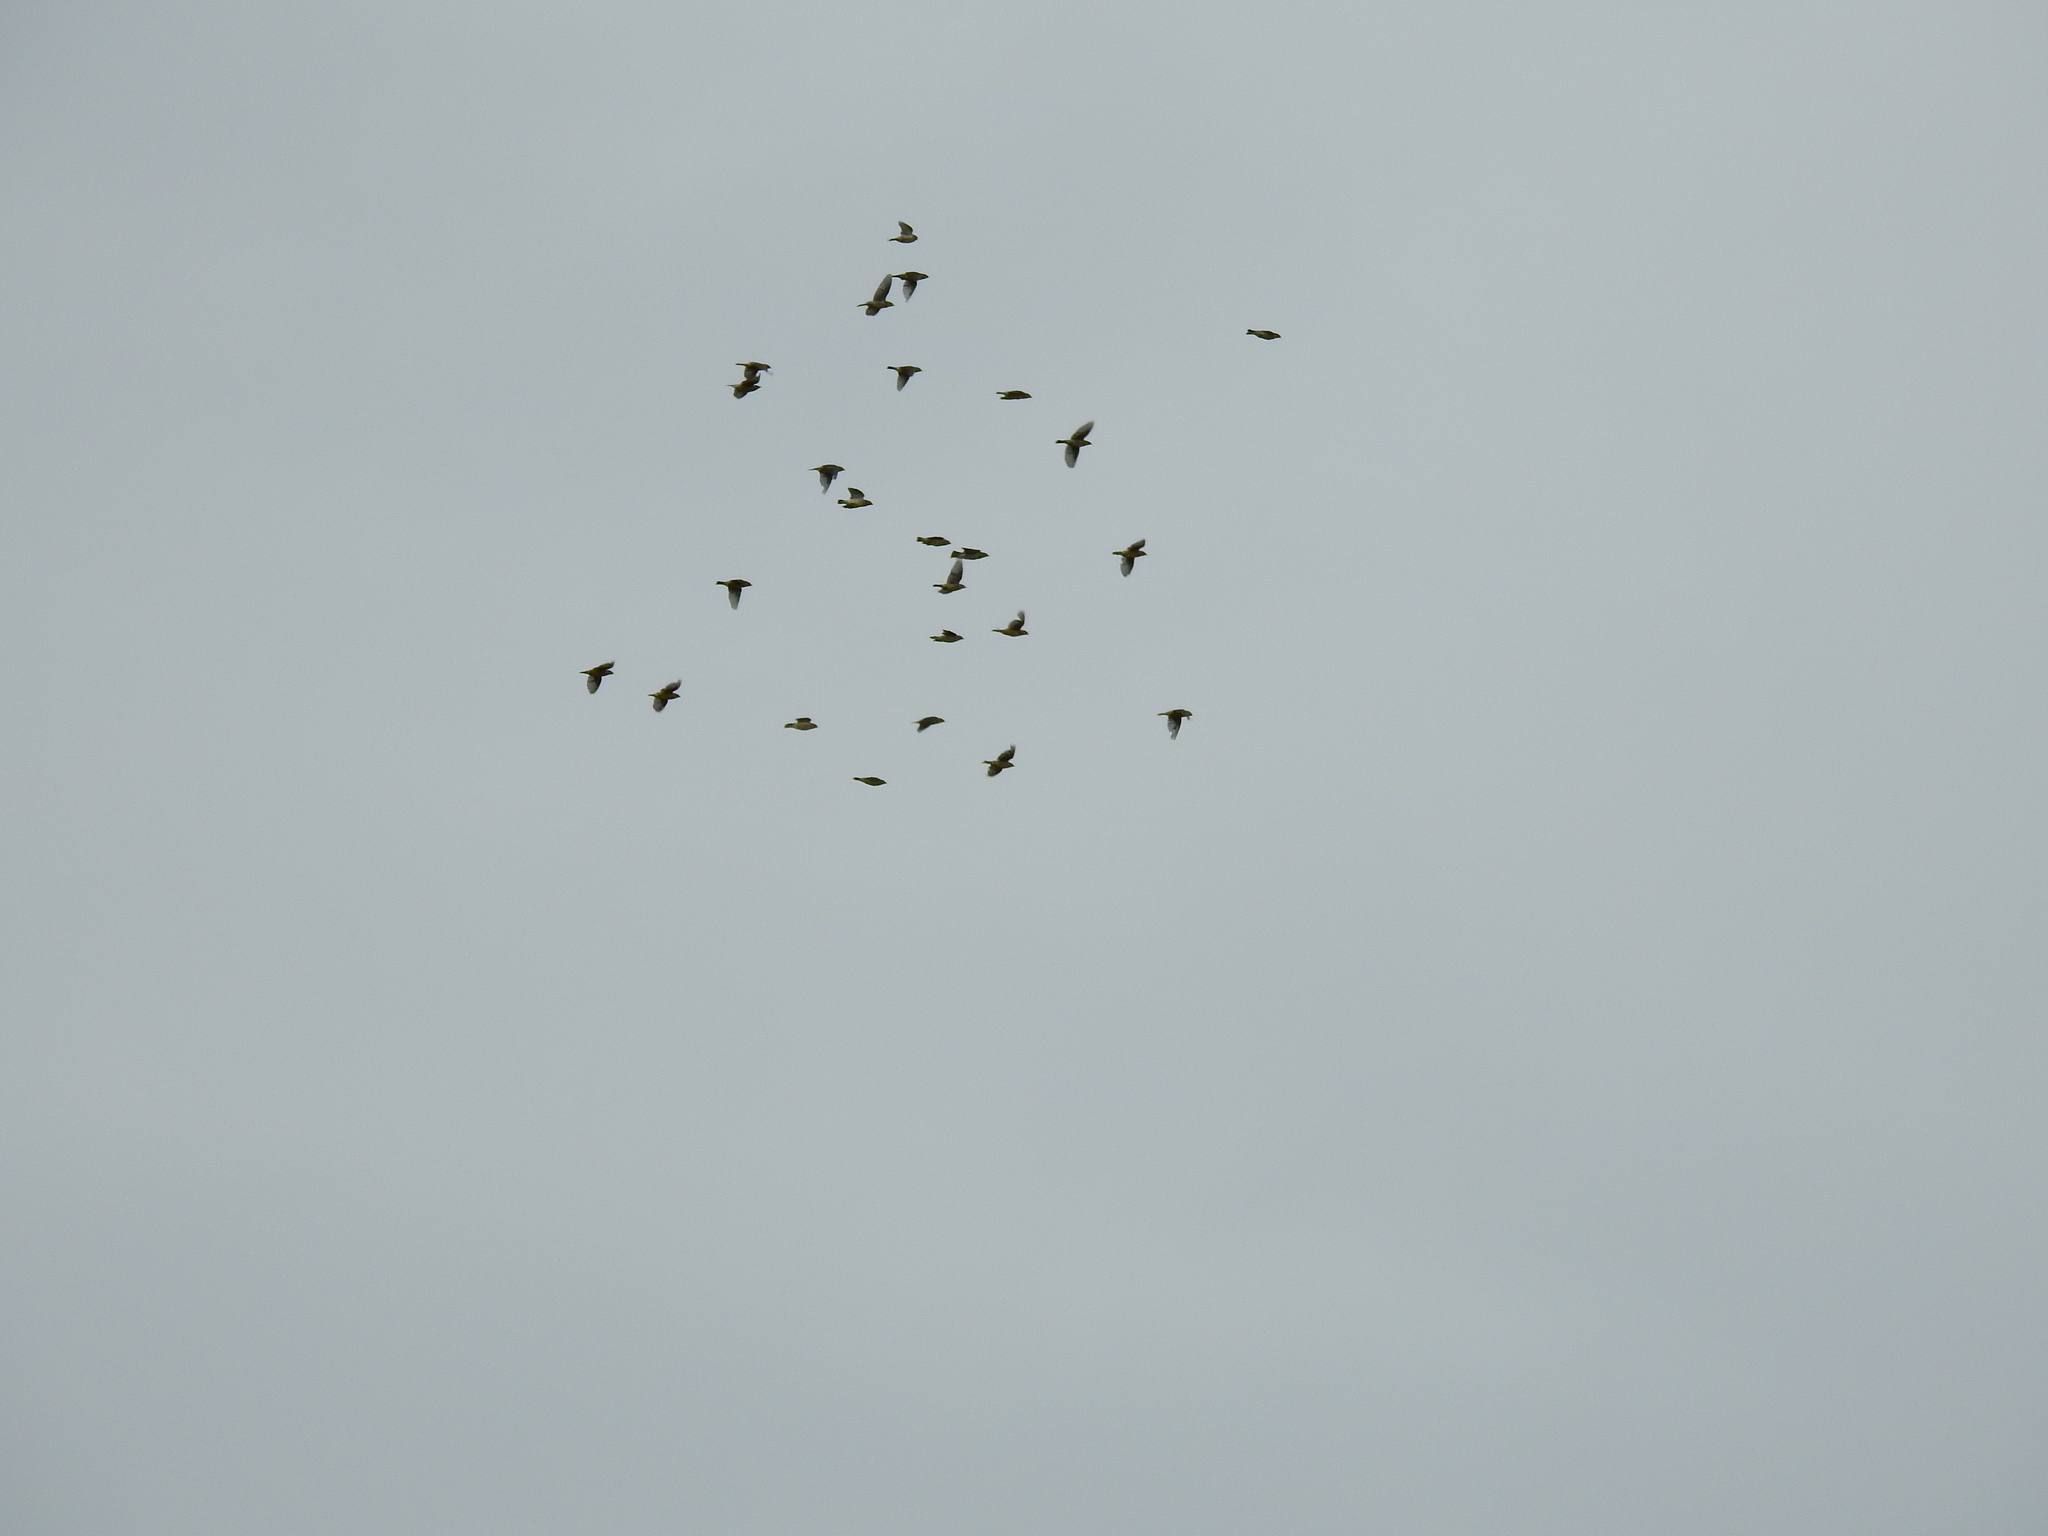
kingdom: Animalia
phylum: Chordata
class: Aves
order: Passeriformes
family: Bombycillidae
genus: Bombycilla
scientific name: Bombycilla cedrorum
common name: Cedar waxwing
